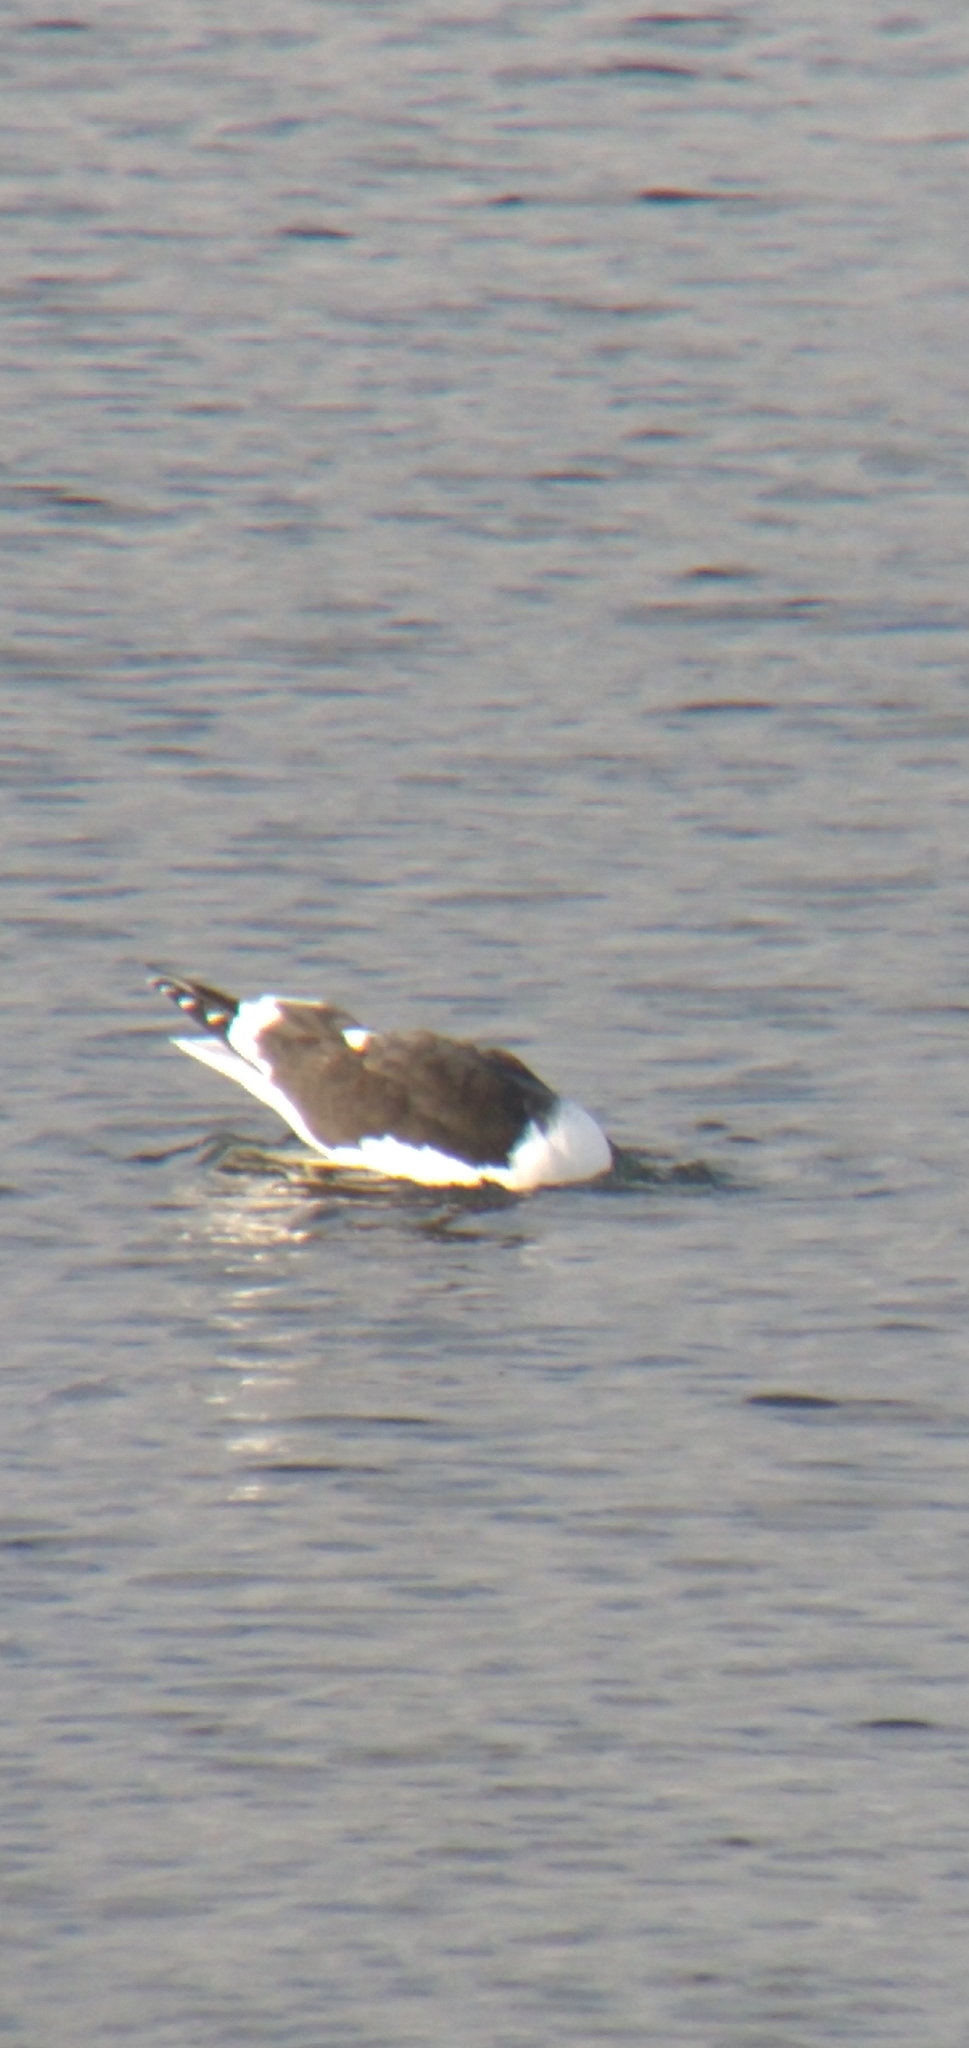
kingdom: Animalia
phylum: Chordata
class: Aves
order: Charadriiformes
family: Laridae
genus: Larus
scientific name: Larus dominicanus
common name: Kelp gull
